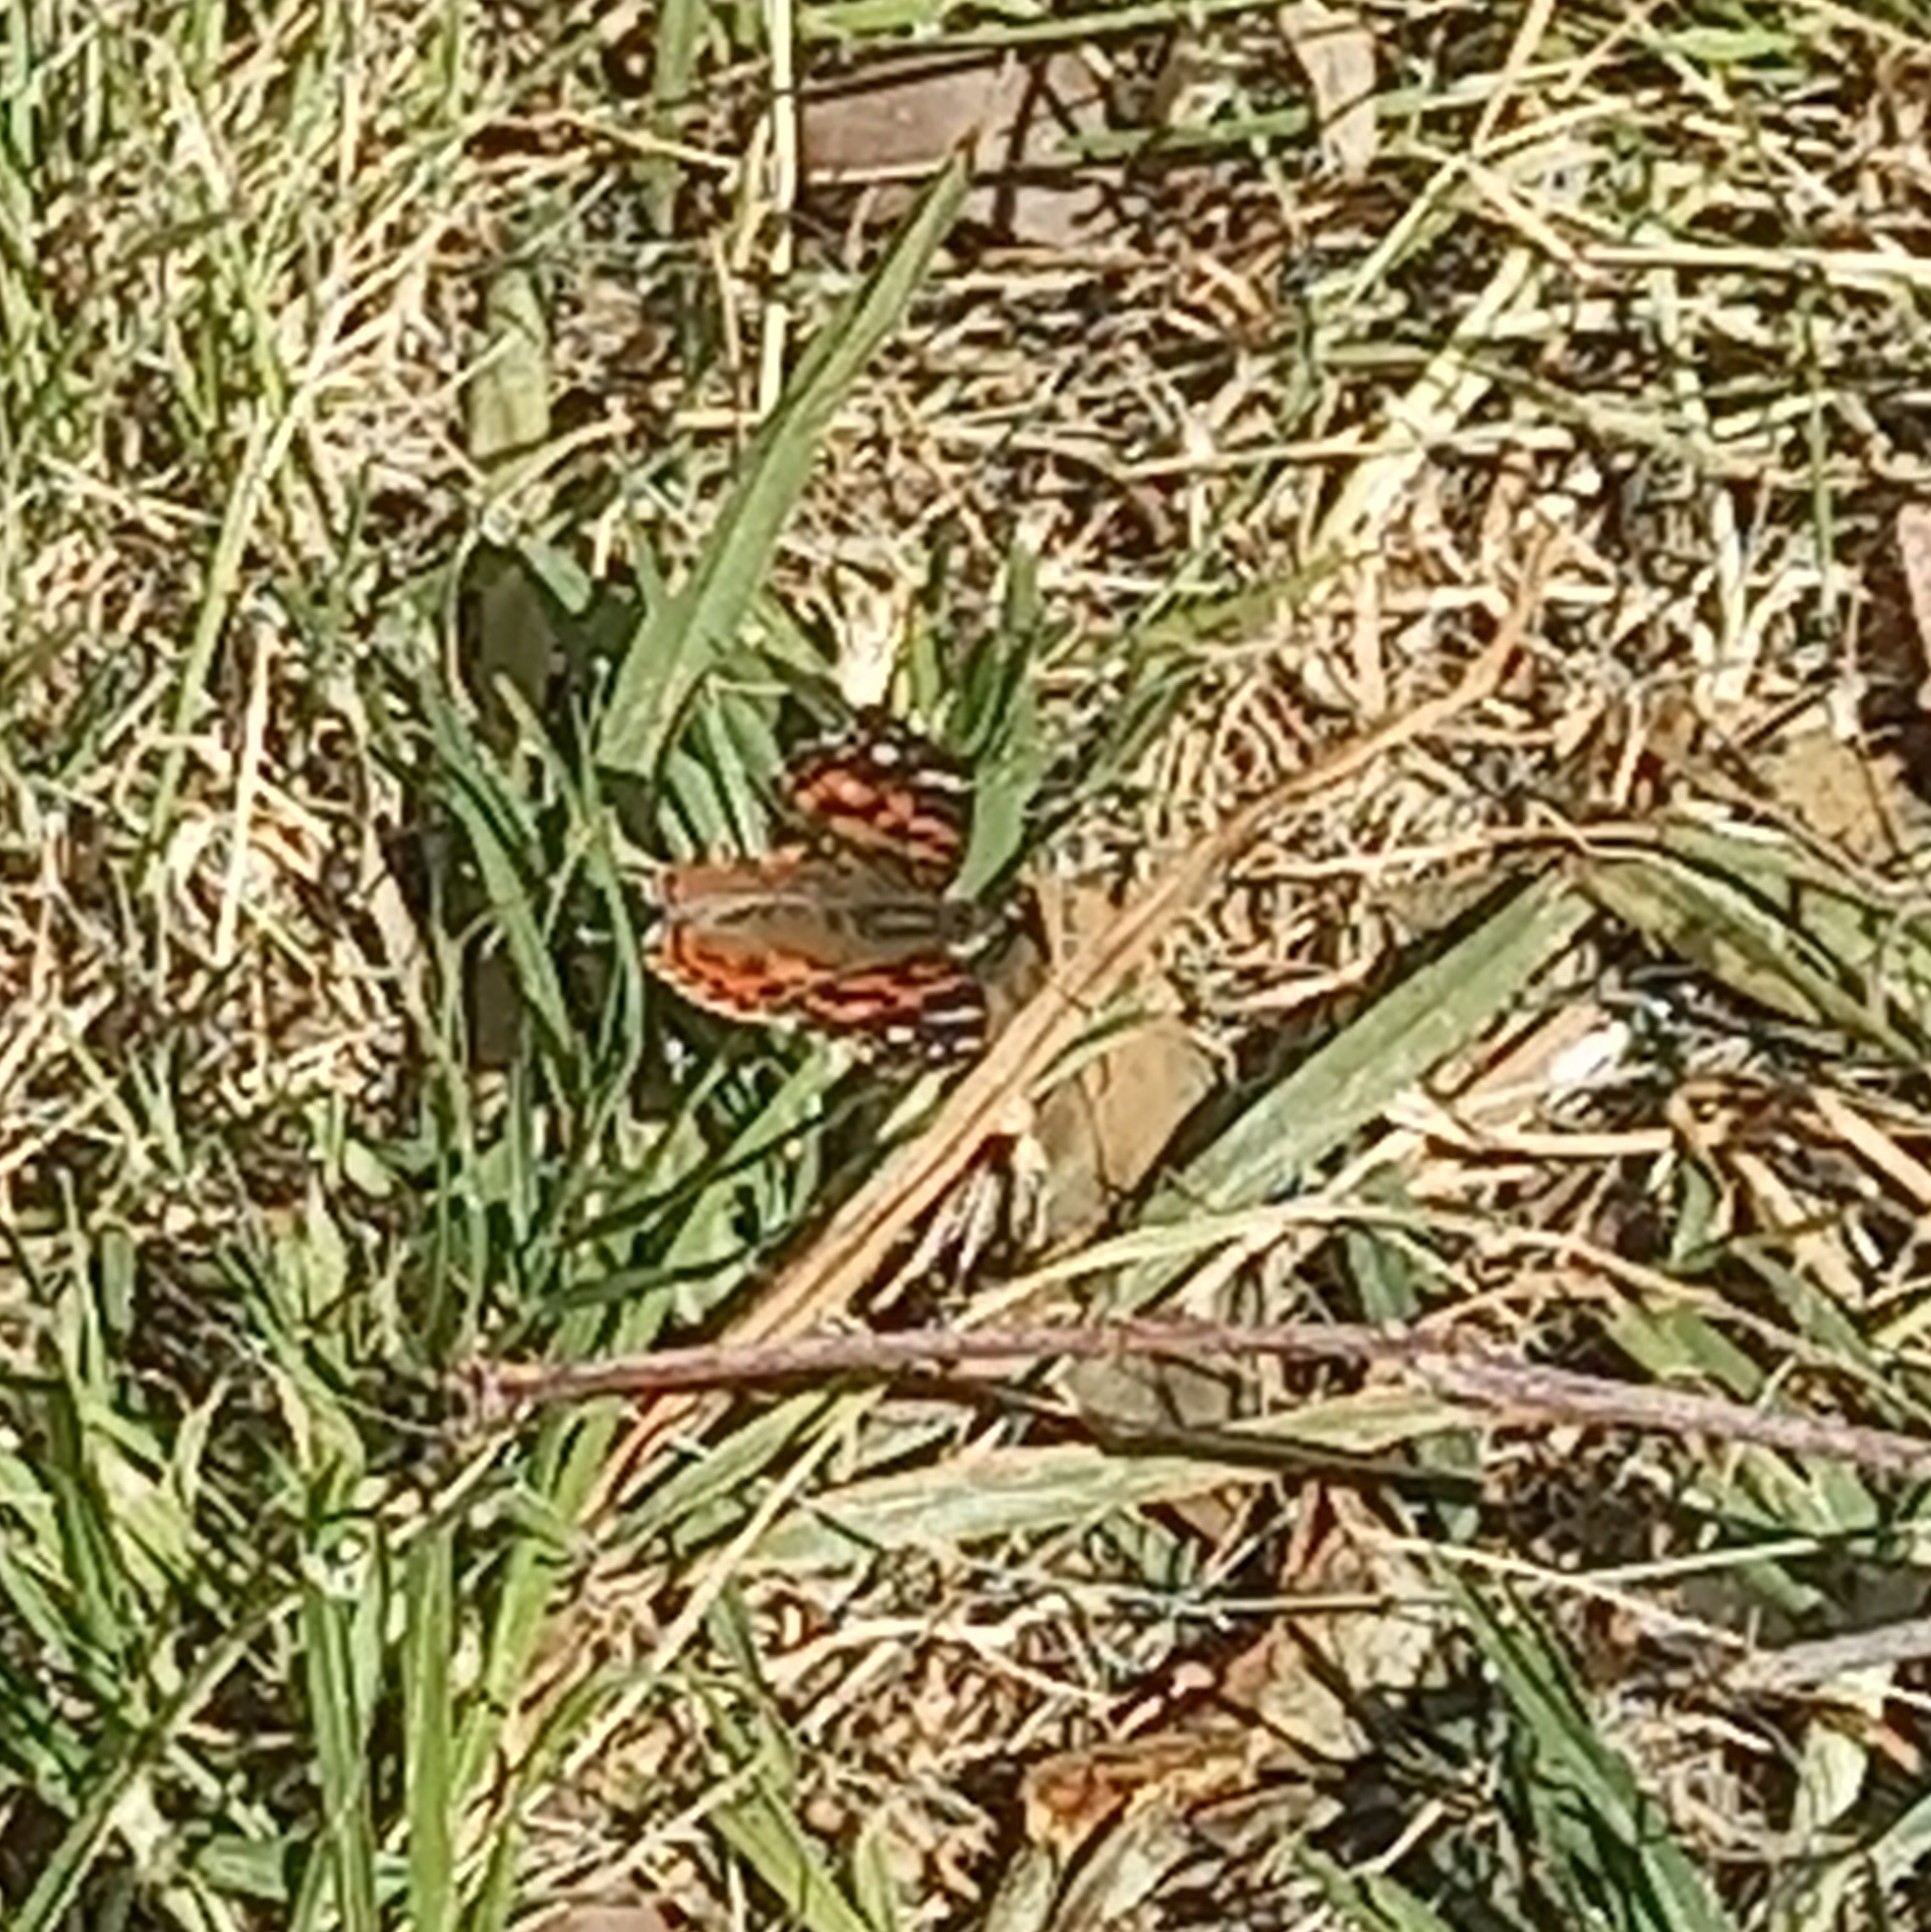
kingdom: Animalia
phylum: Arthropoda
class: Insecta
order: Lepidoptera
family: Nymphalidae
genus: Vanessa
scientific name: Vanessa braziliensis
